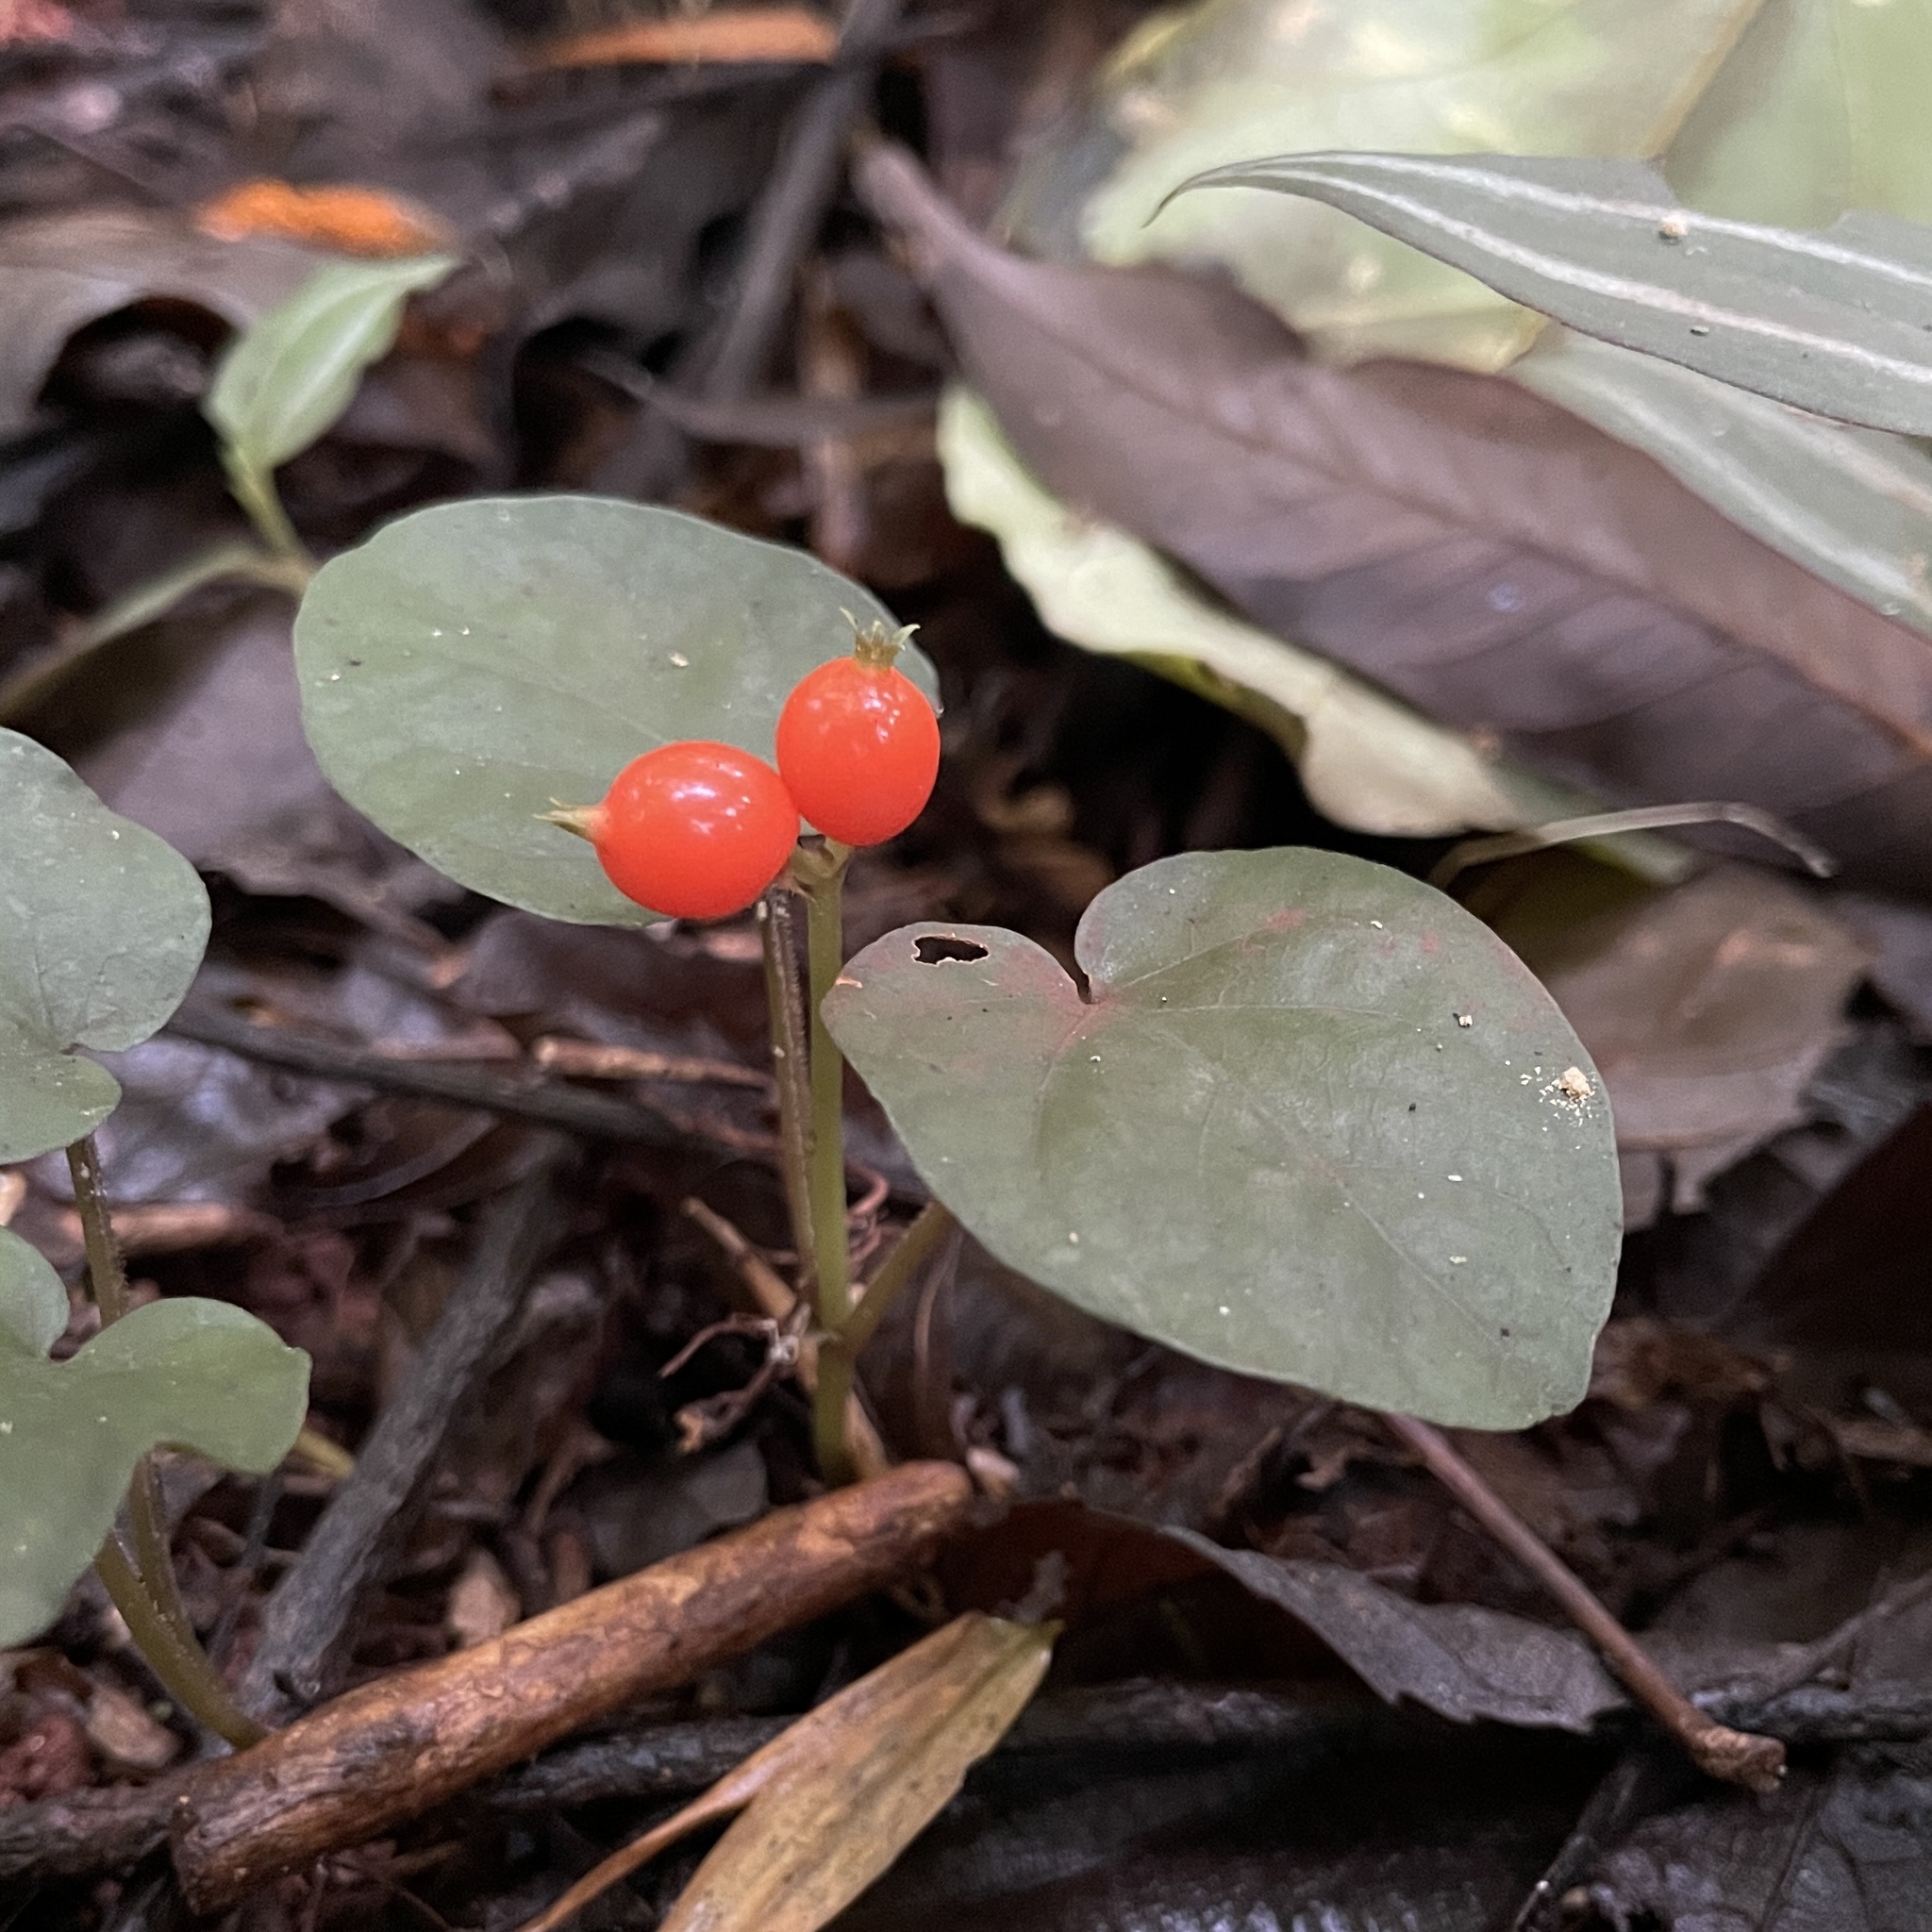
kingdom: Plantae
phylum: Tracheophyta
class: Magnoliopsida
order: Gentianales
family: Rubiaceae
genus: Geophila
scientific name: Geophila repens
